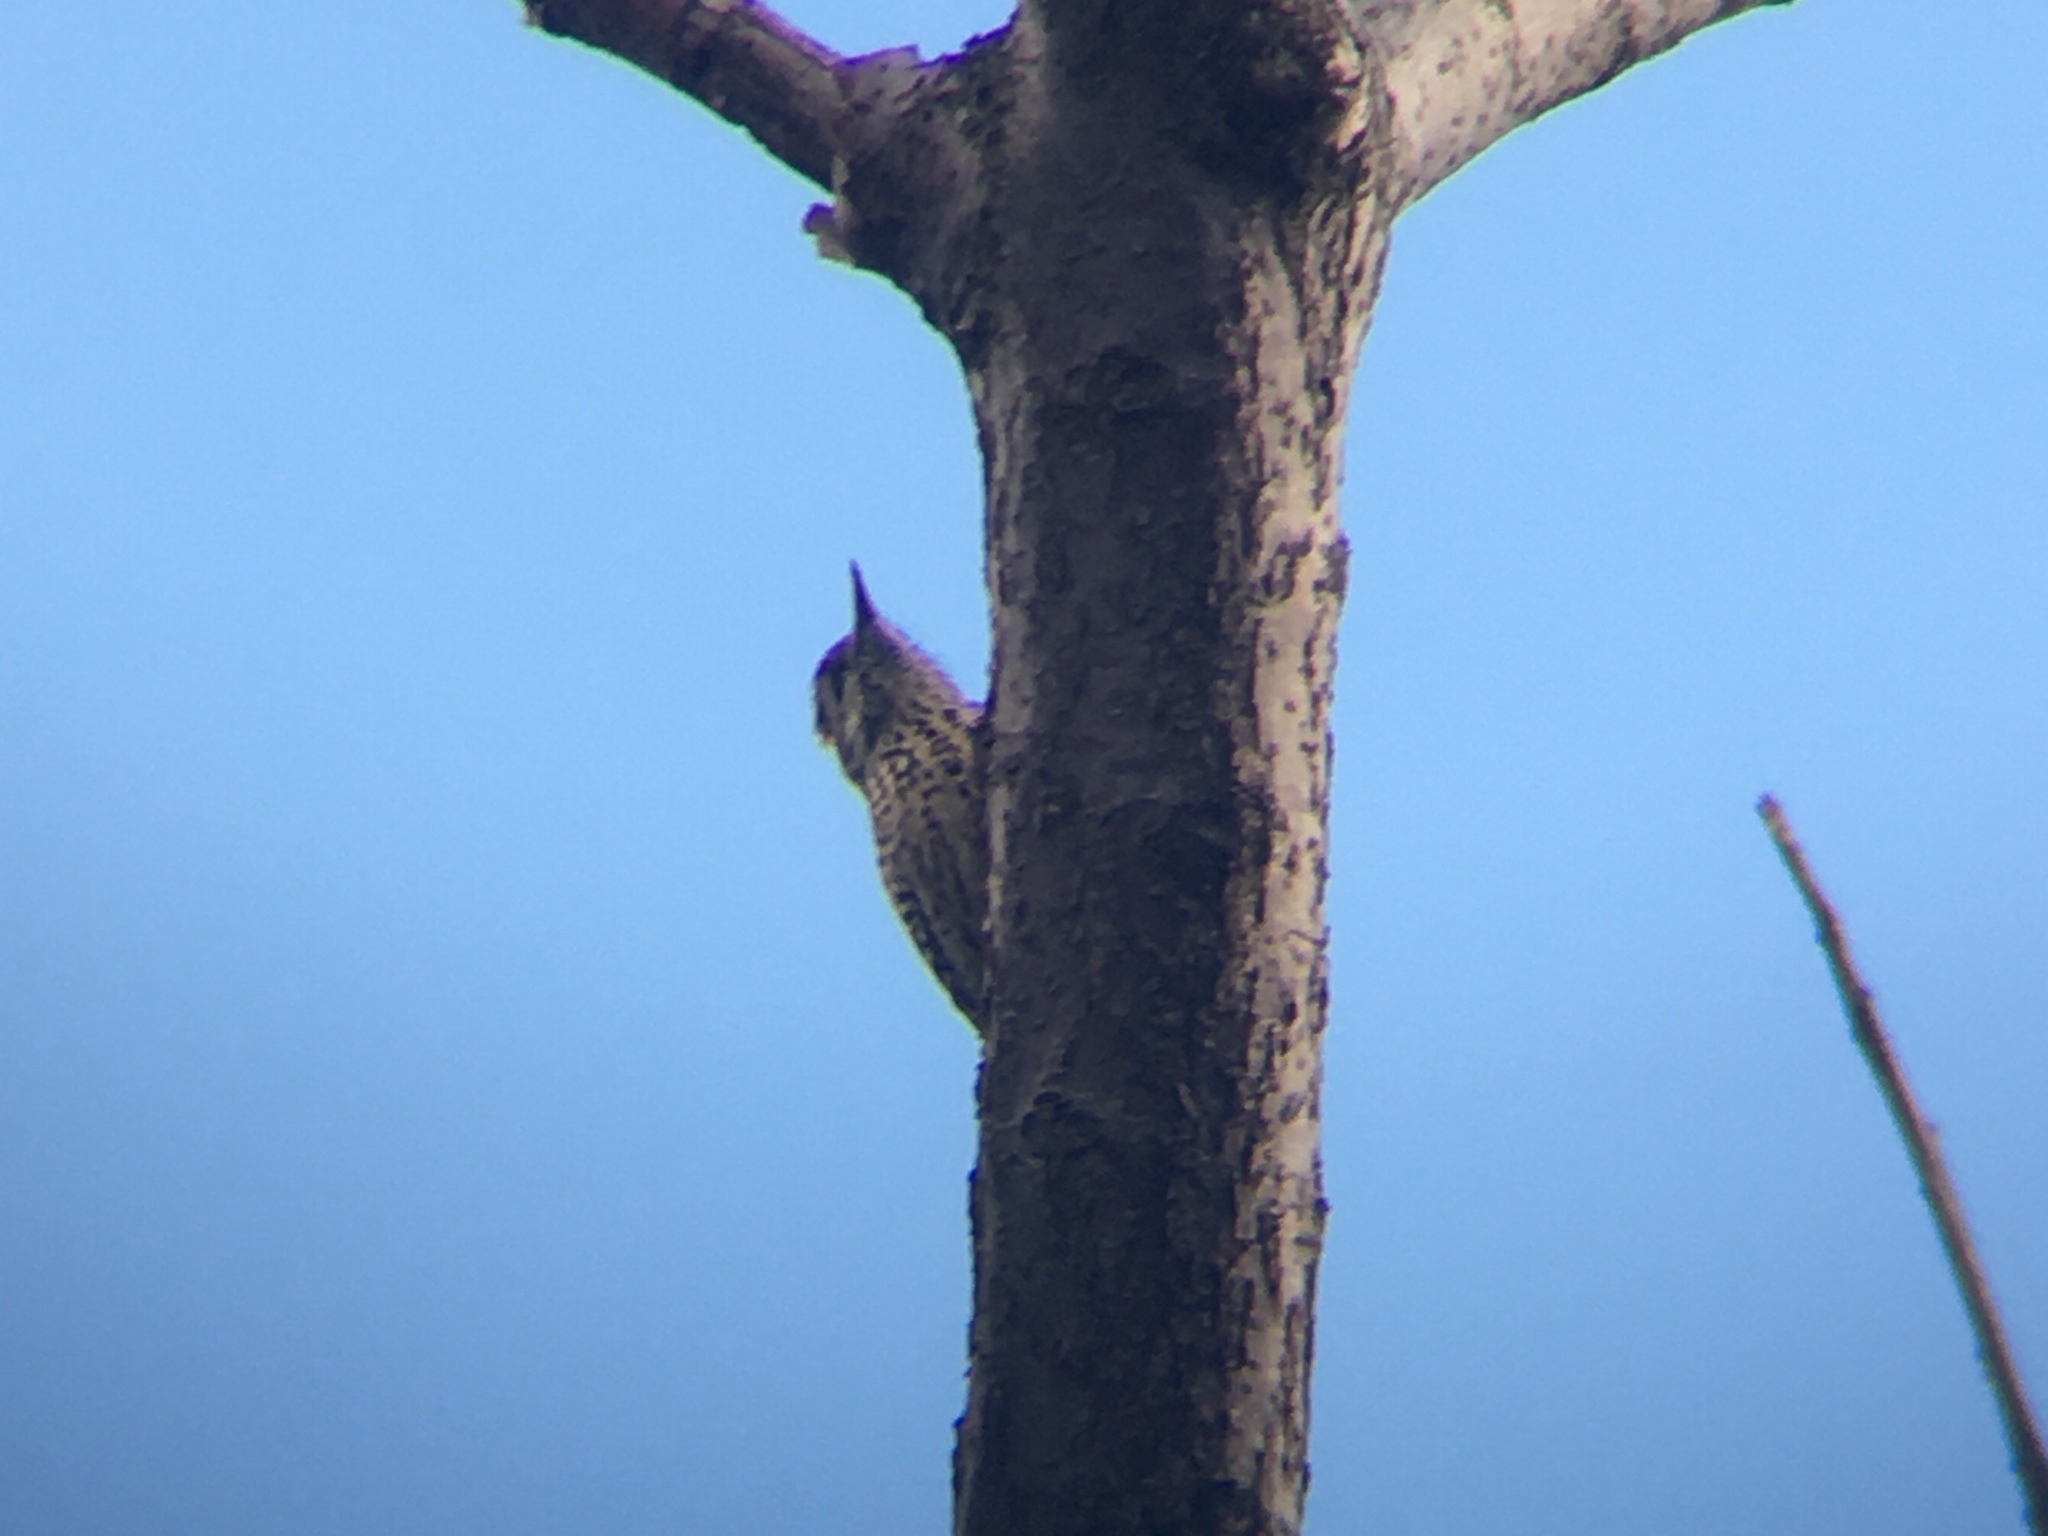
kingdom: Animalia
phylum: Chordata
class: Aves
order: Piciformes
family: Picidae
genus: Veniliornis
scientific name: Veniliornis mixtus
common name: Checkered woodpecker
